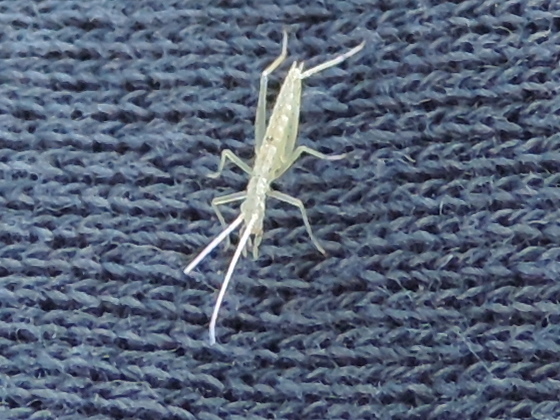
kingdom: Animalia
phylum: Arthropoda
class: Insecta
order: Orthoptera
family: Gryllidae
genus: Oecanthus
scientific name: Oecanthus
